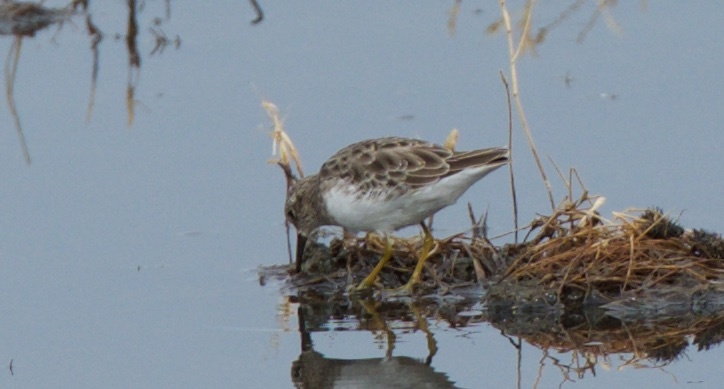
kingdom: Animalia
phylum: Chordata
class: Aves
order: Charadriiformes
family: Scolopacidae
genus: Calidris
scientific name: Calidris minutilla
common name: Least sandpiper
